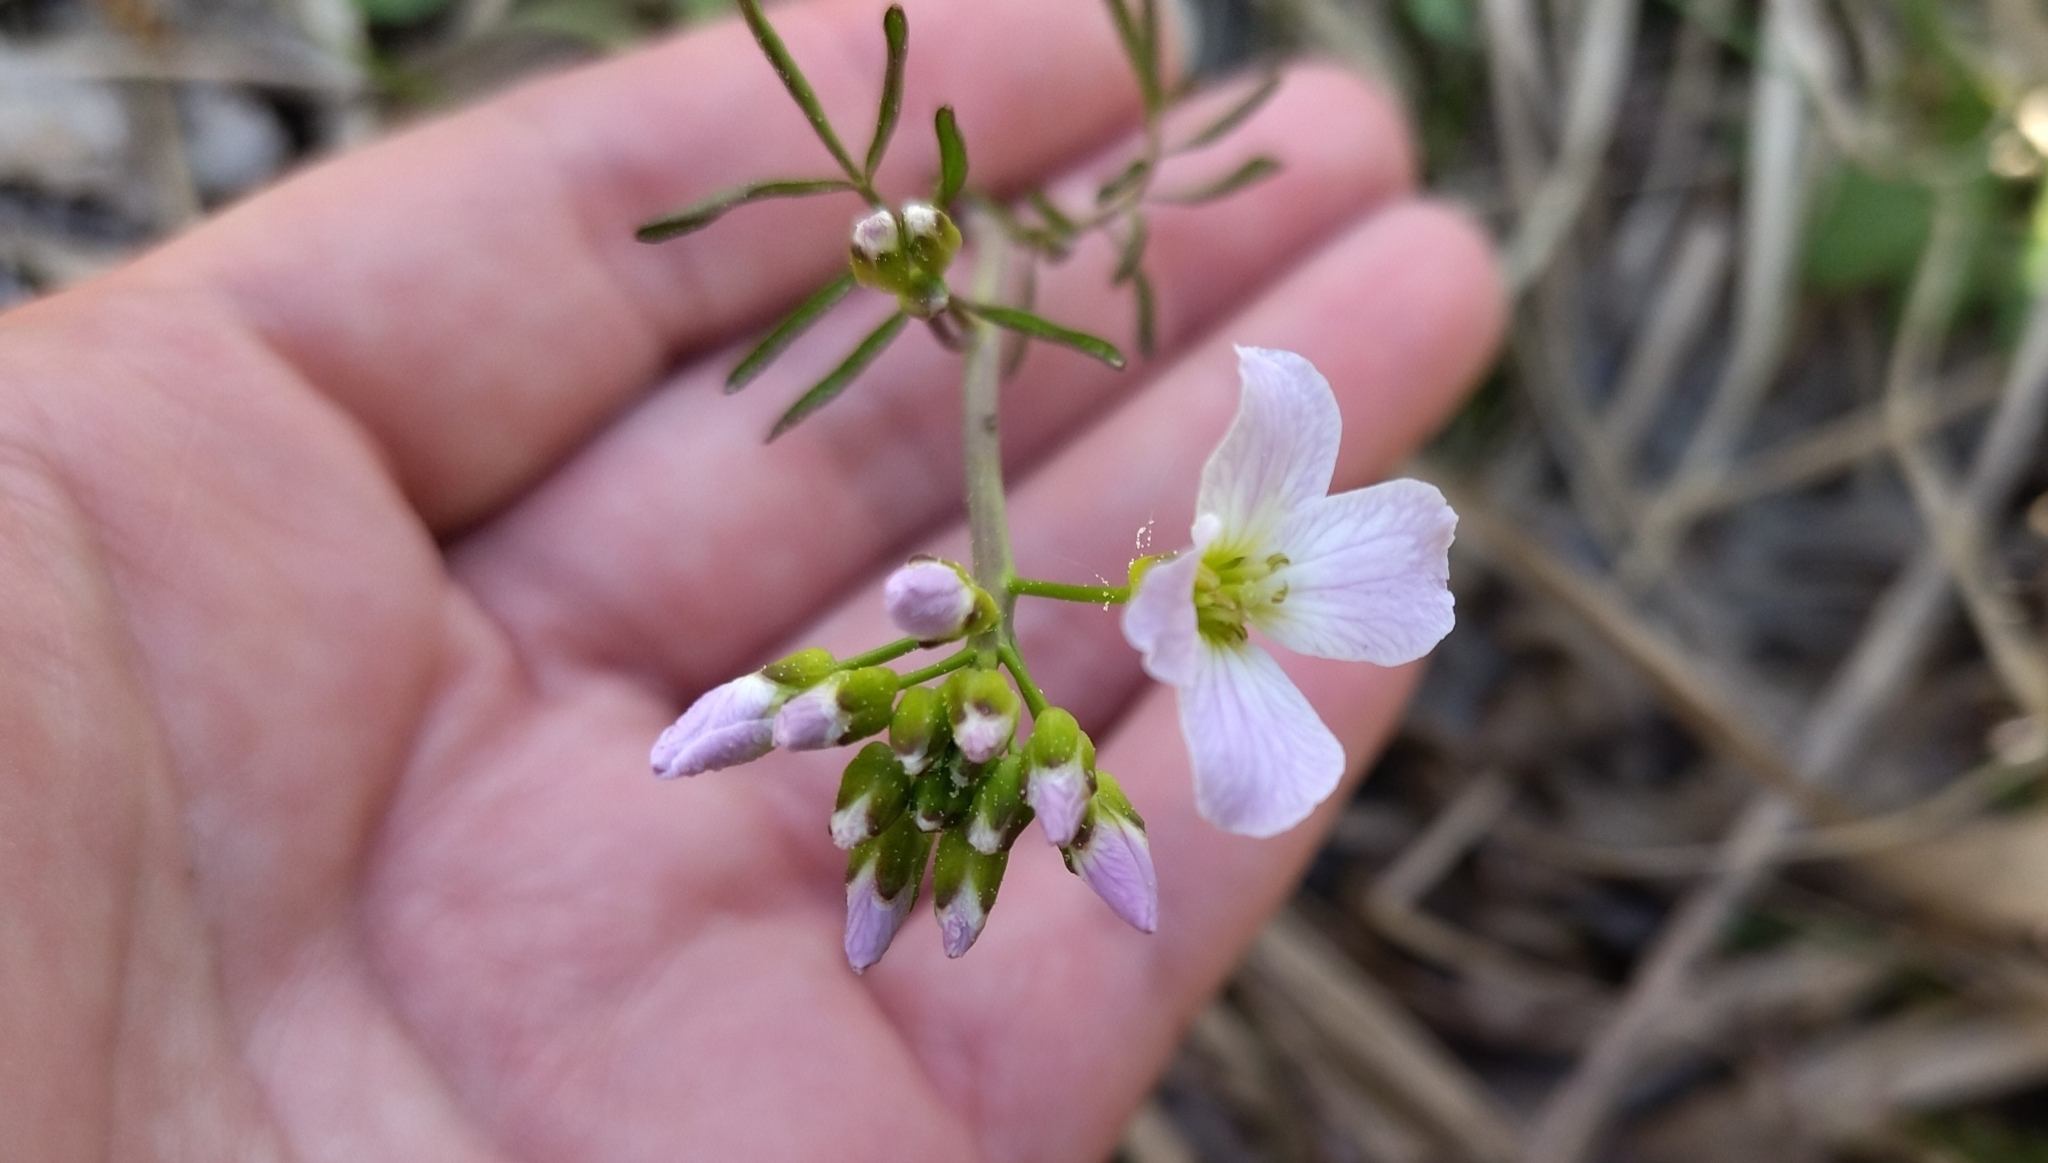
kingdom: Plantae
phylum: Tracheophyta
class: Magnoliopsida
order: Brassicales
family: Brassicaceae
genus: Cardamine
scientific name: Cardamine dentata
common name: Toothed bittercress
